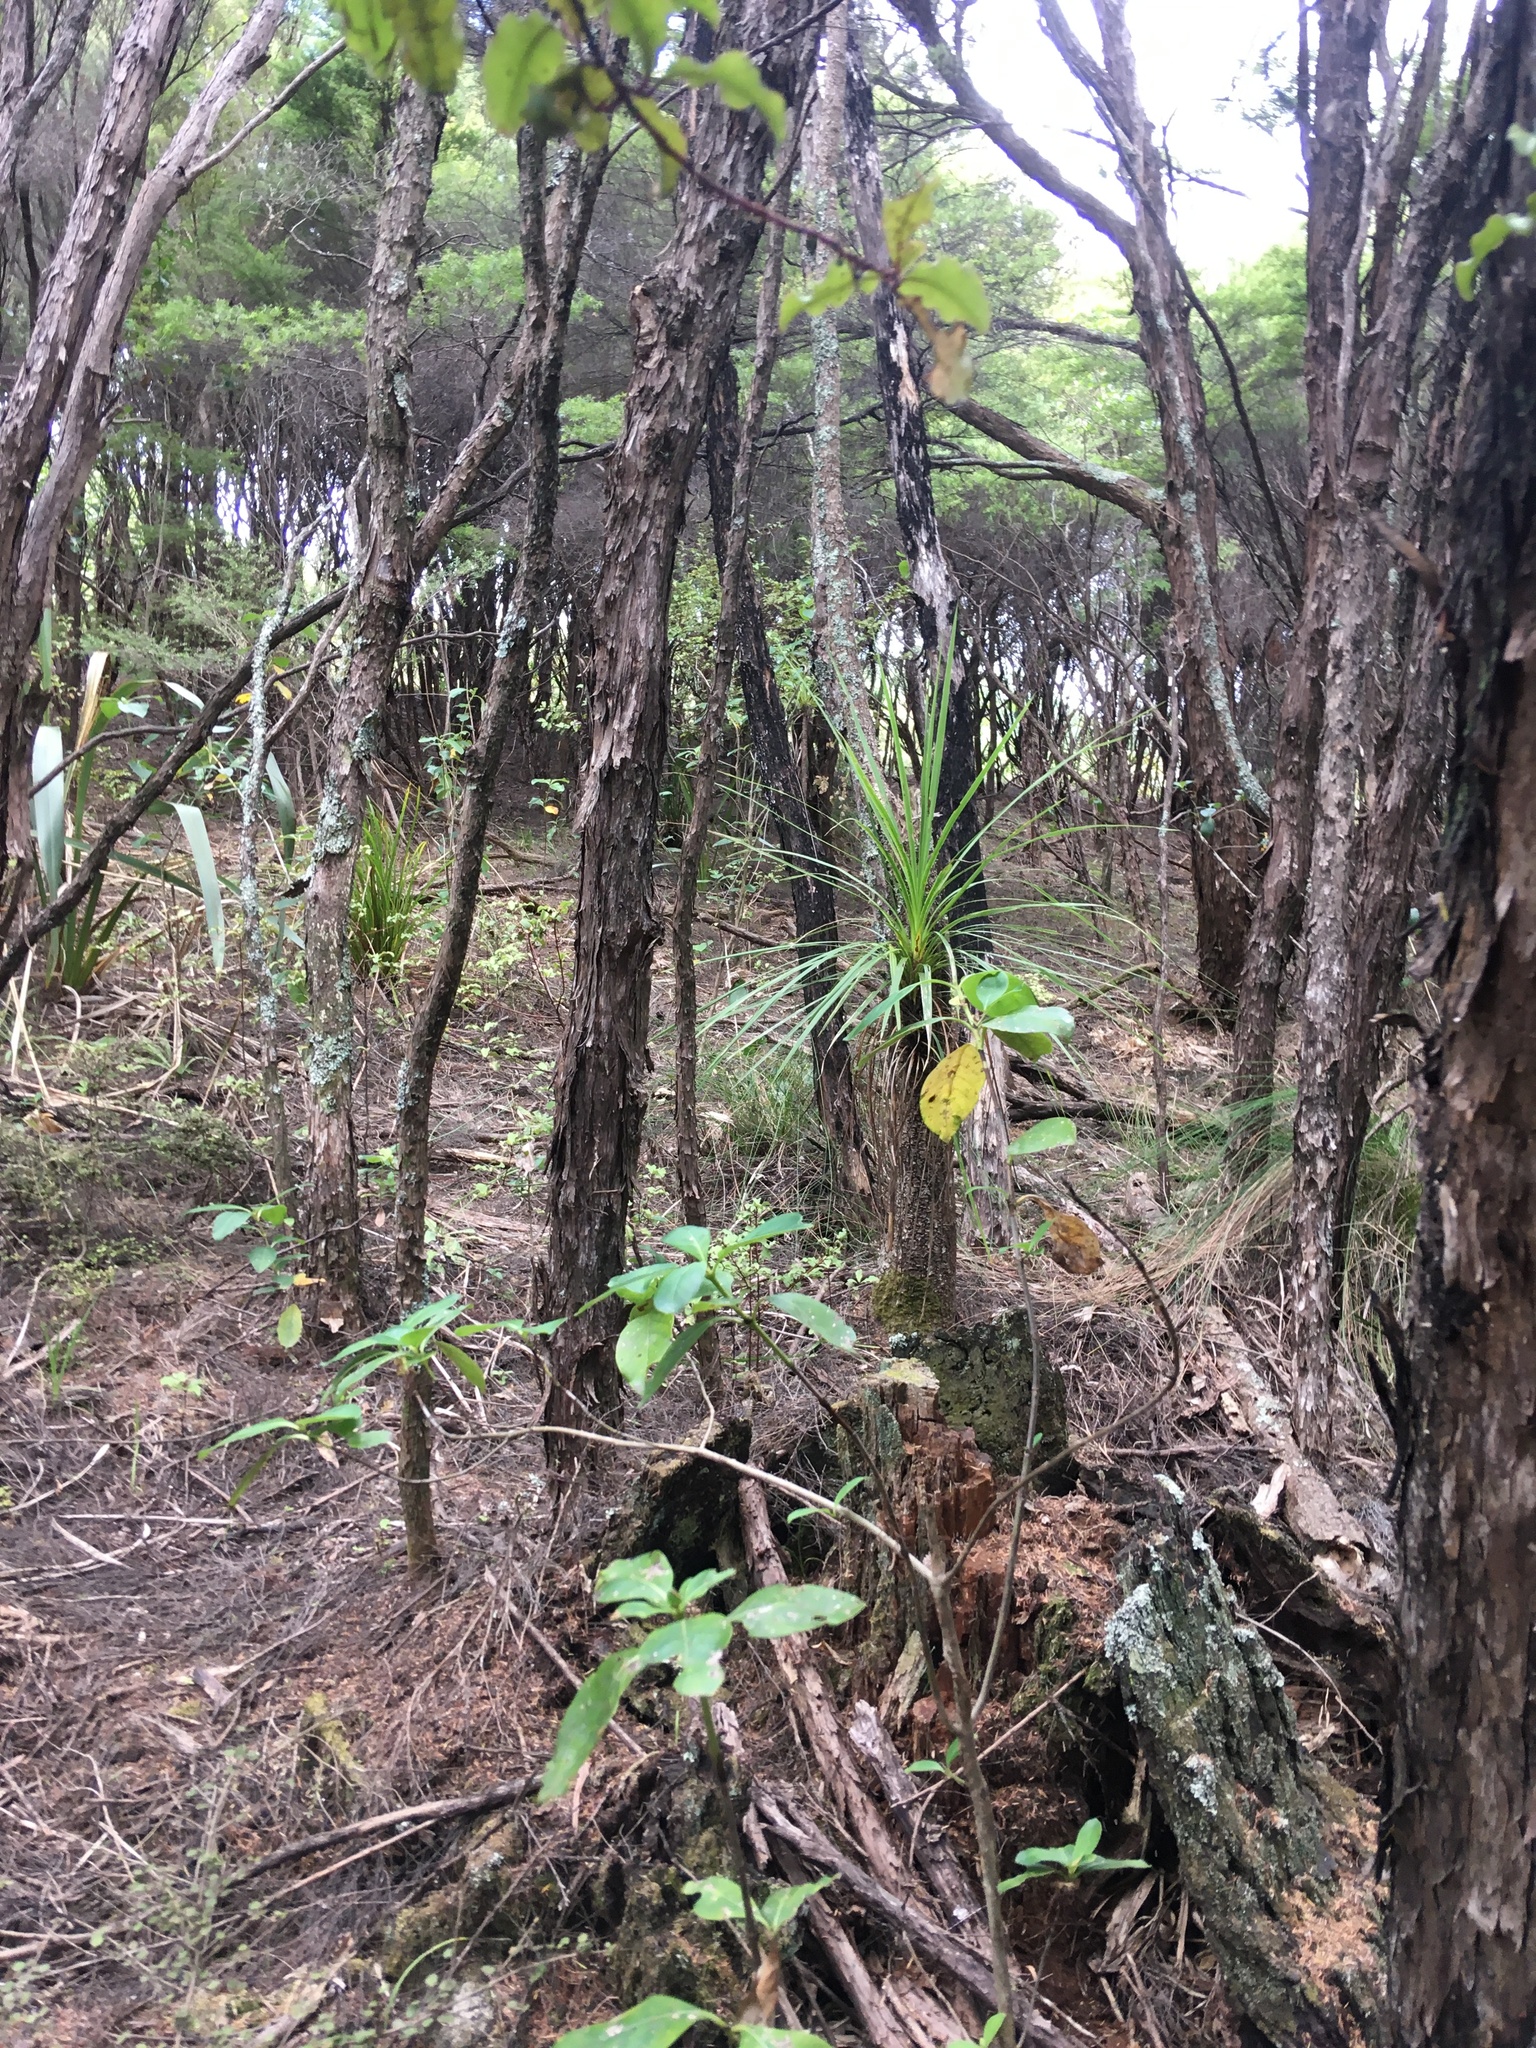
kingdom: Plantae
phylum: Tracheophyta
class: Liliopsida
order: Asparagales
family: Asparagaceae
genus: Cordyline
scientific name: Cordyline australis
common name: Cabbage-palm
